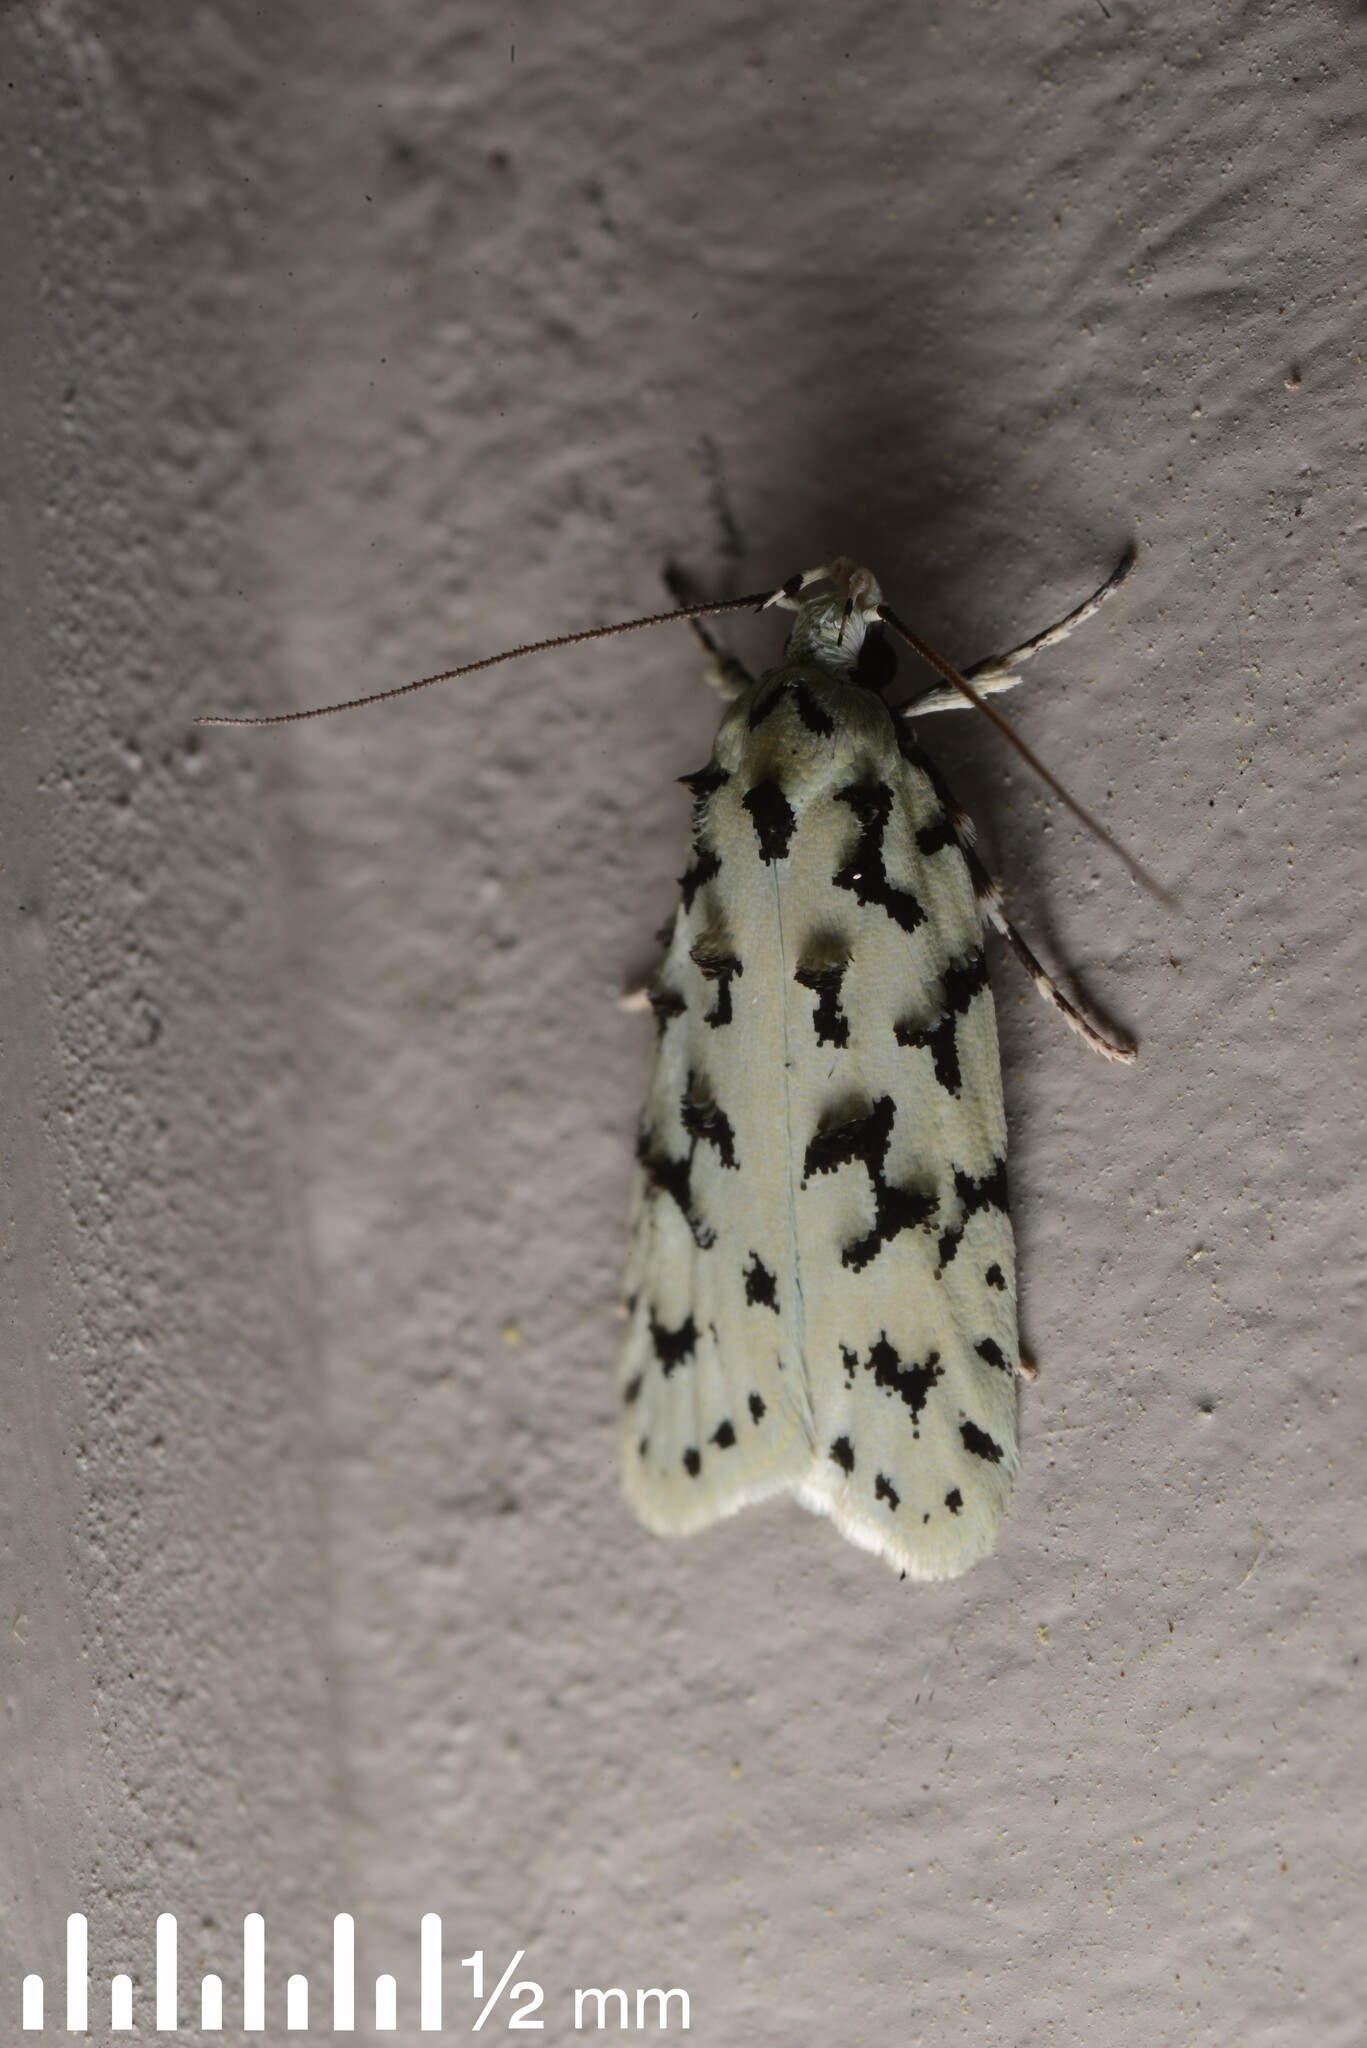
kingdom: Animalia
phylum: Arthropoda
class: Insecta
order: Lepidoptera
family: Oecophoridae
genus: Izatha
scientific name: Izatha huttoni
